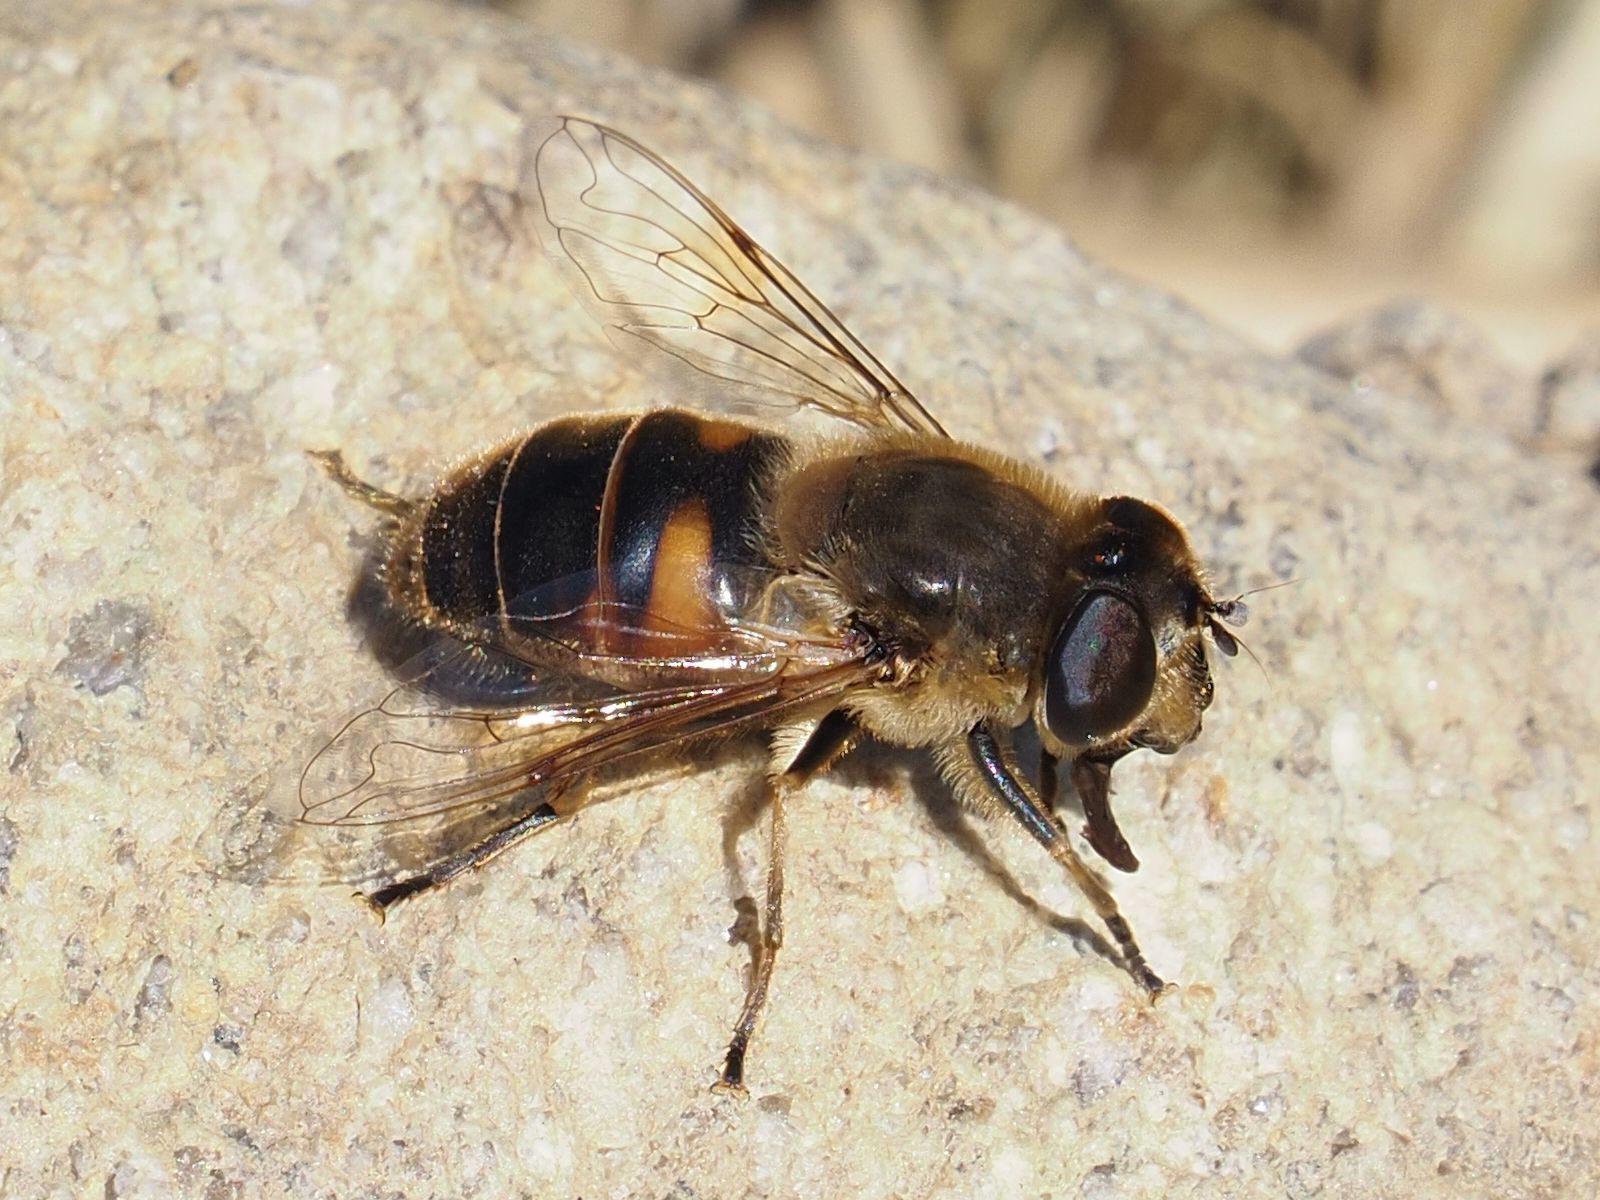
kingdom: Animalia
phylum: Arthropoda
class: Insecta
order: Diptera
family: Syrphidae
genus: Eristalis
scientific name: Eristalis tenax
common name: Drone fly
